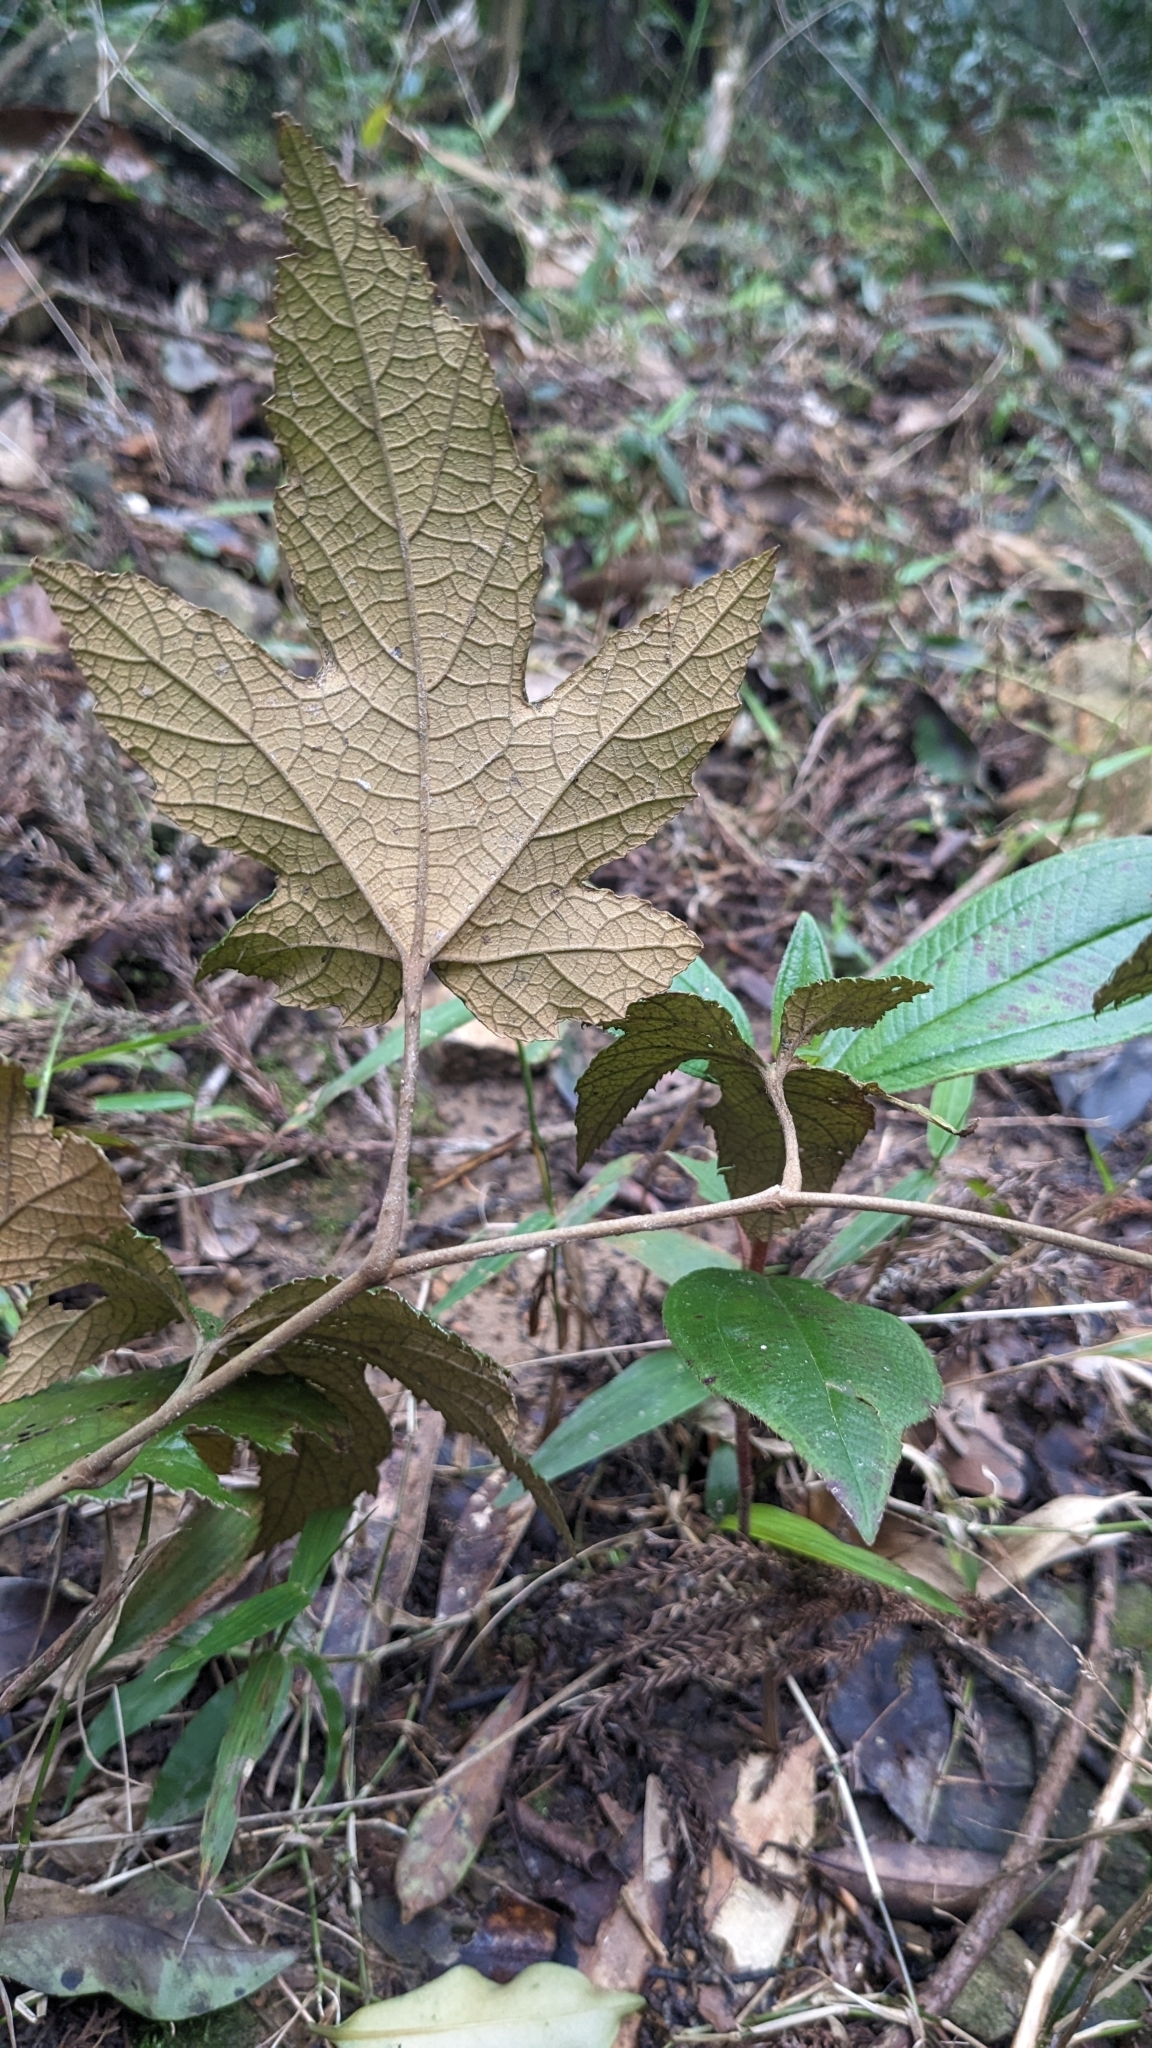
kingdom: Plantae
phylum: Tracheophyta
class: Magnoliopsida
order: Rosales
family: Rosaceae
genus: Rubus
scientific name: Rubus reflexus
